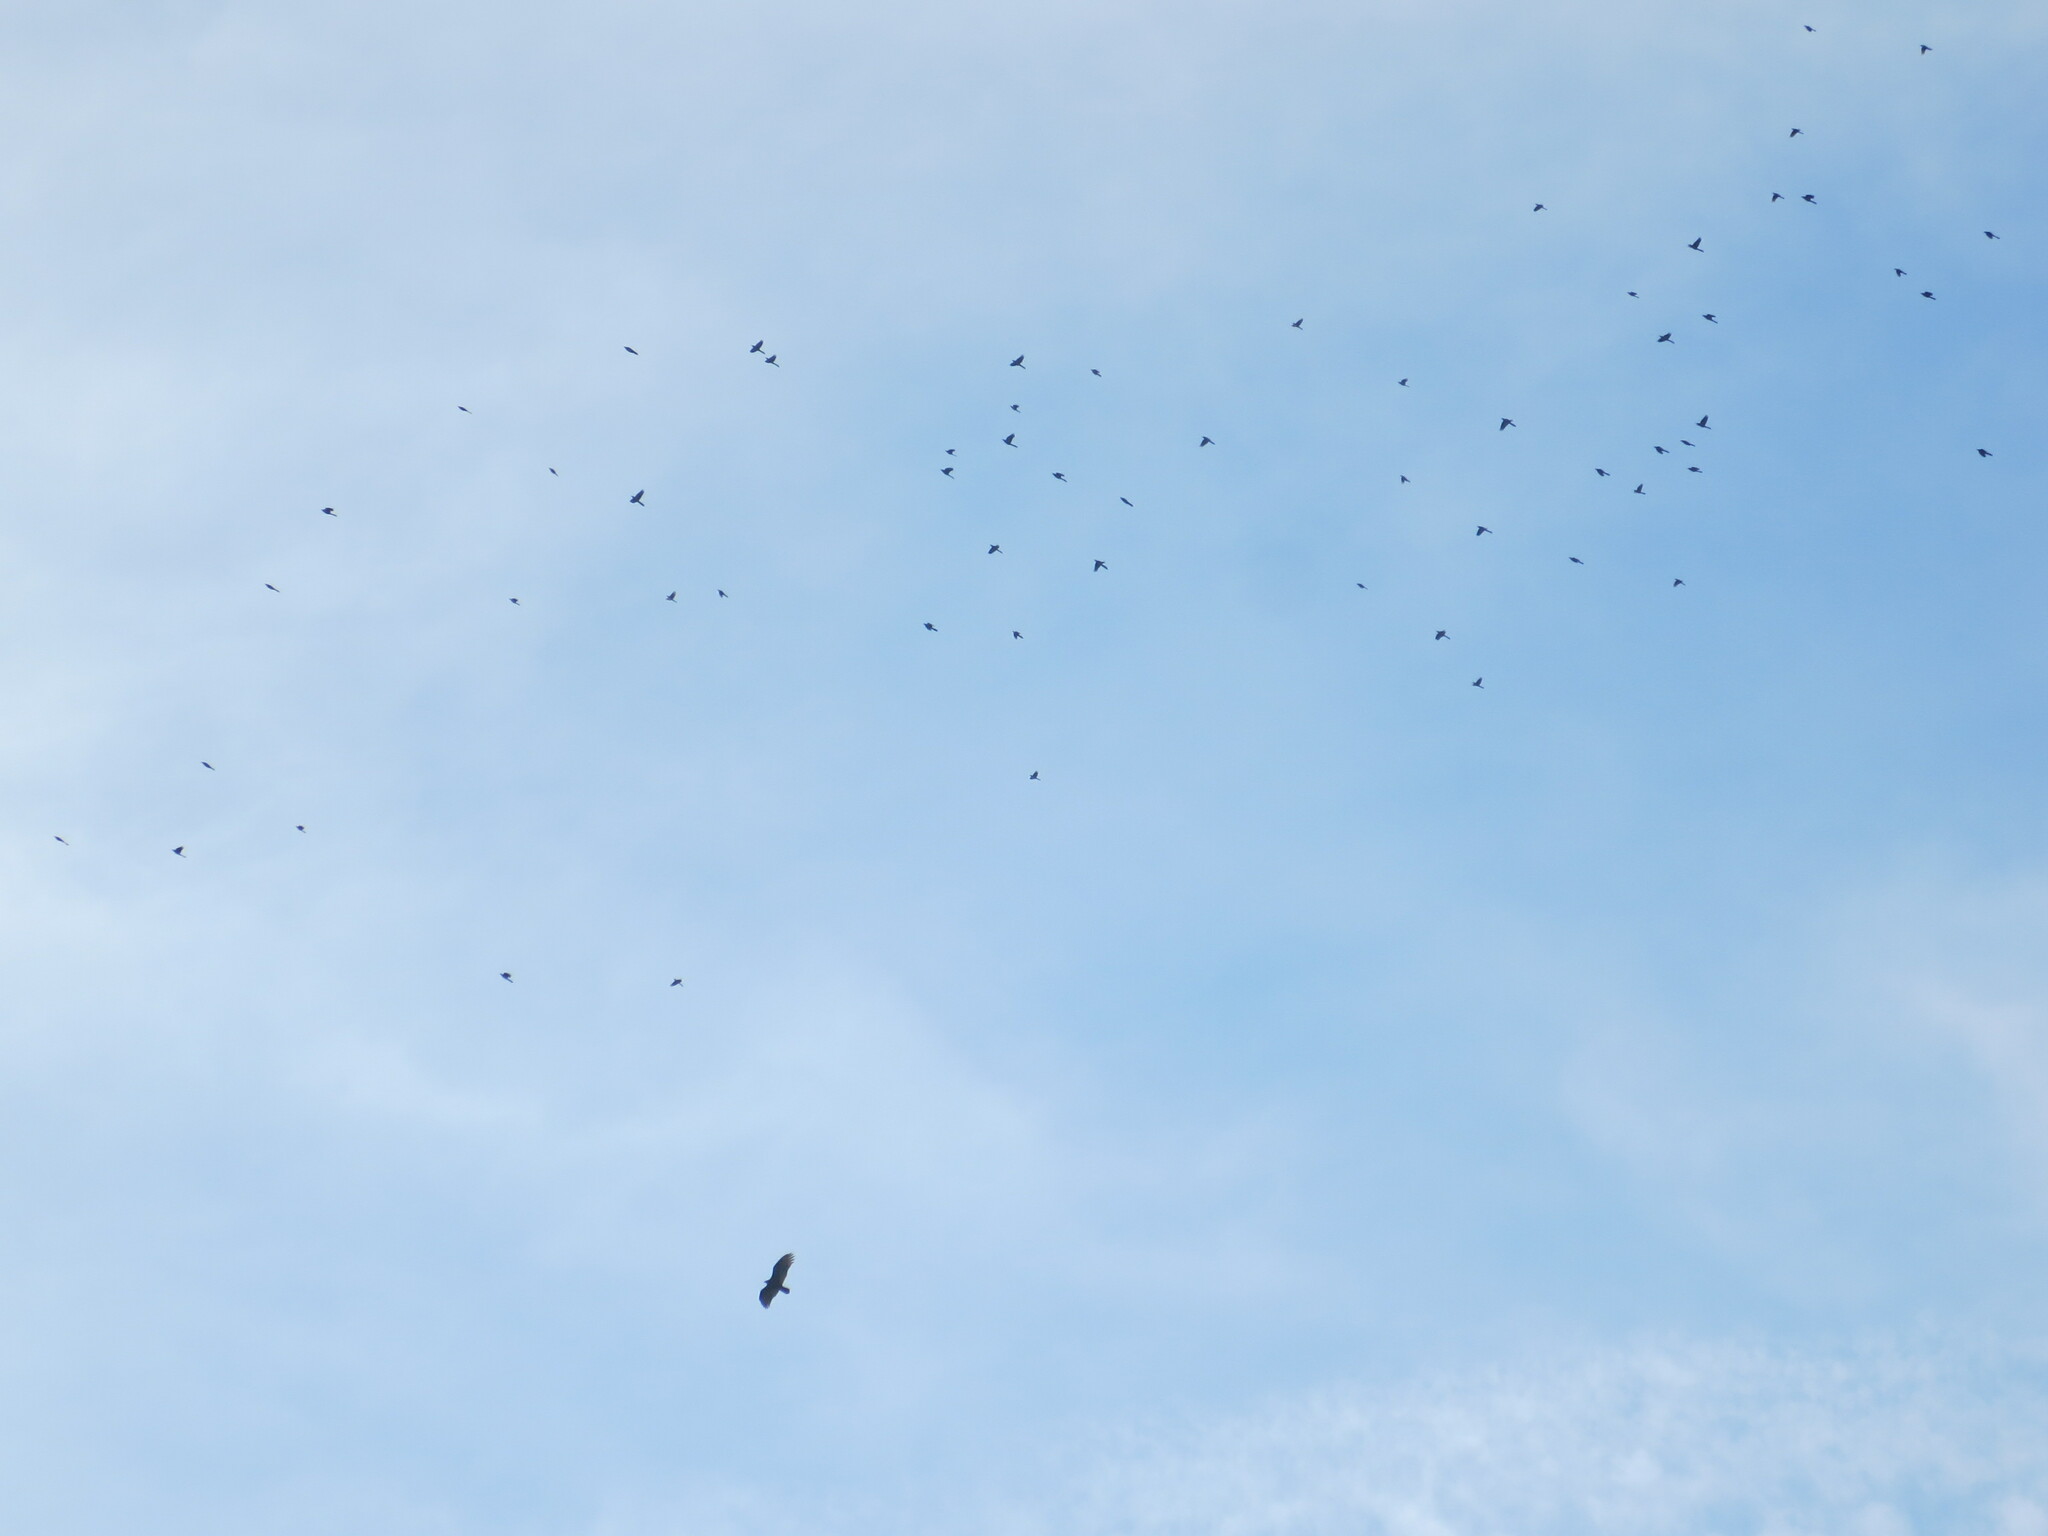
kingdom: Animalia
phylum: Chordata
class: Aves
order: Accipitriformes
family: Cathartidae
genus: Cathartes
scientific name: Cathartes aura
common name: Turkey vulture
